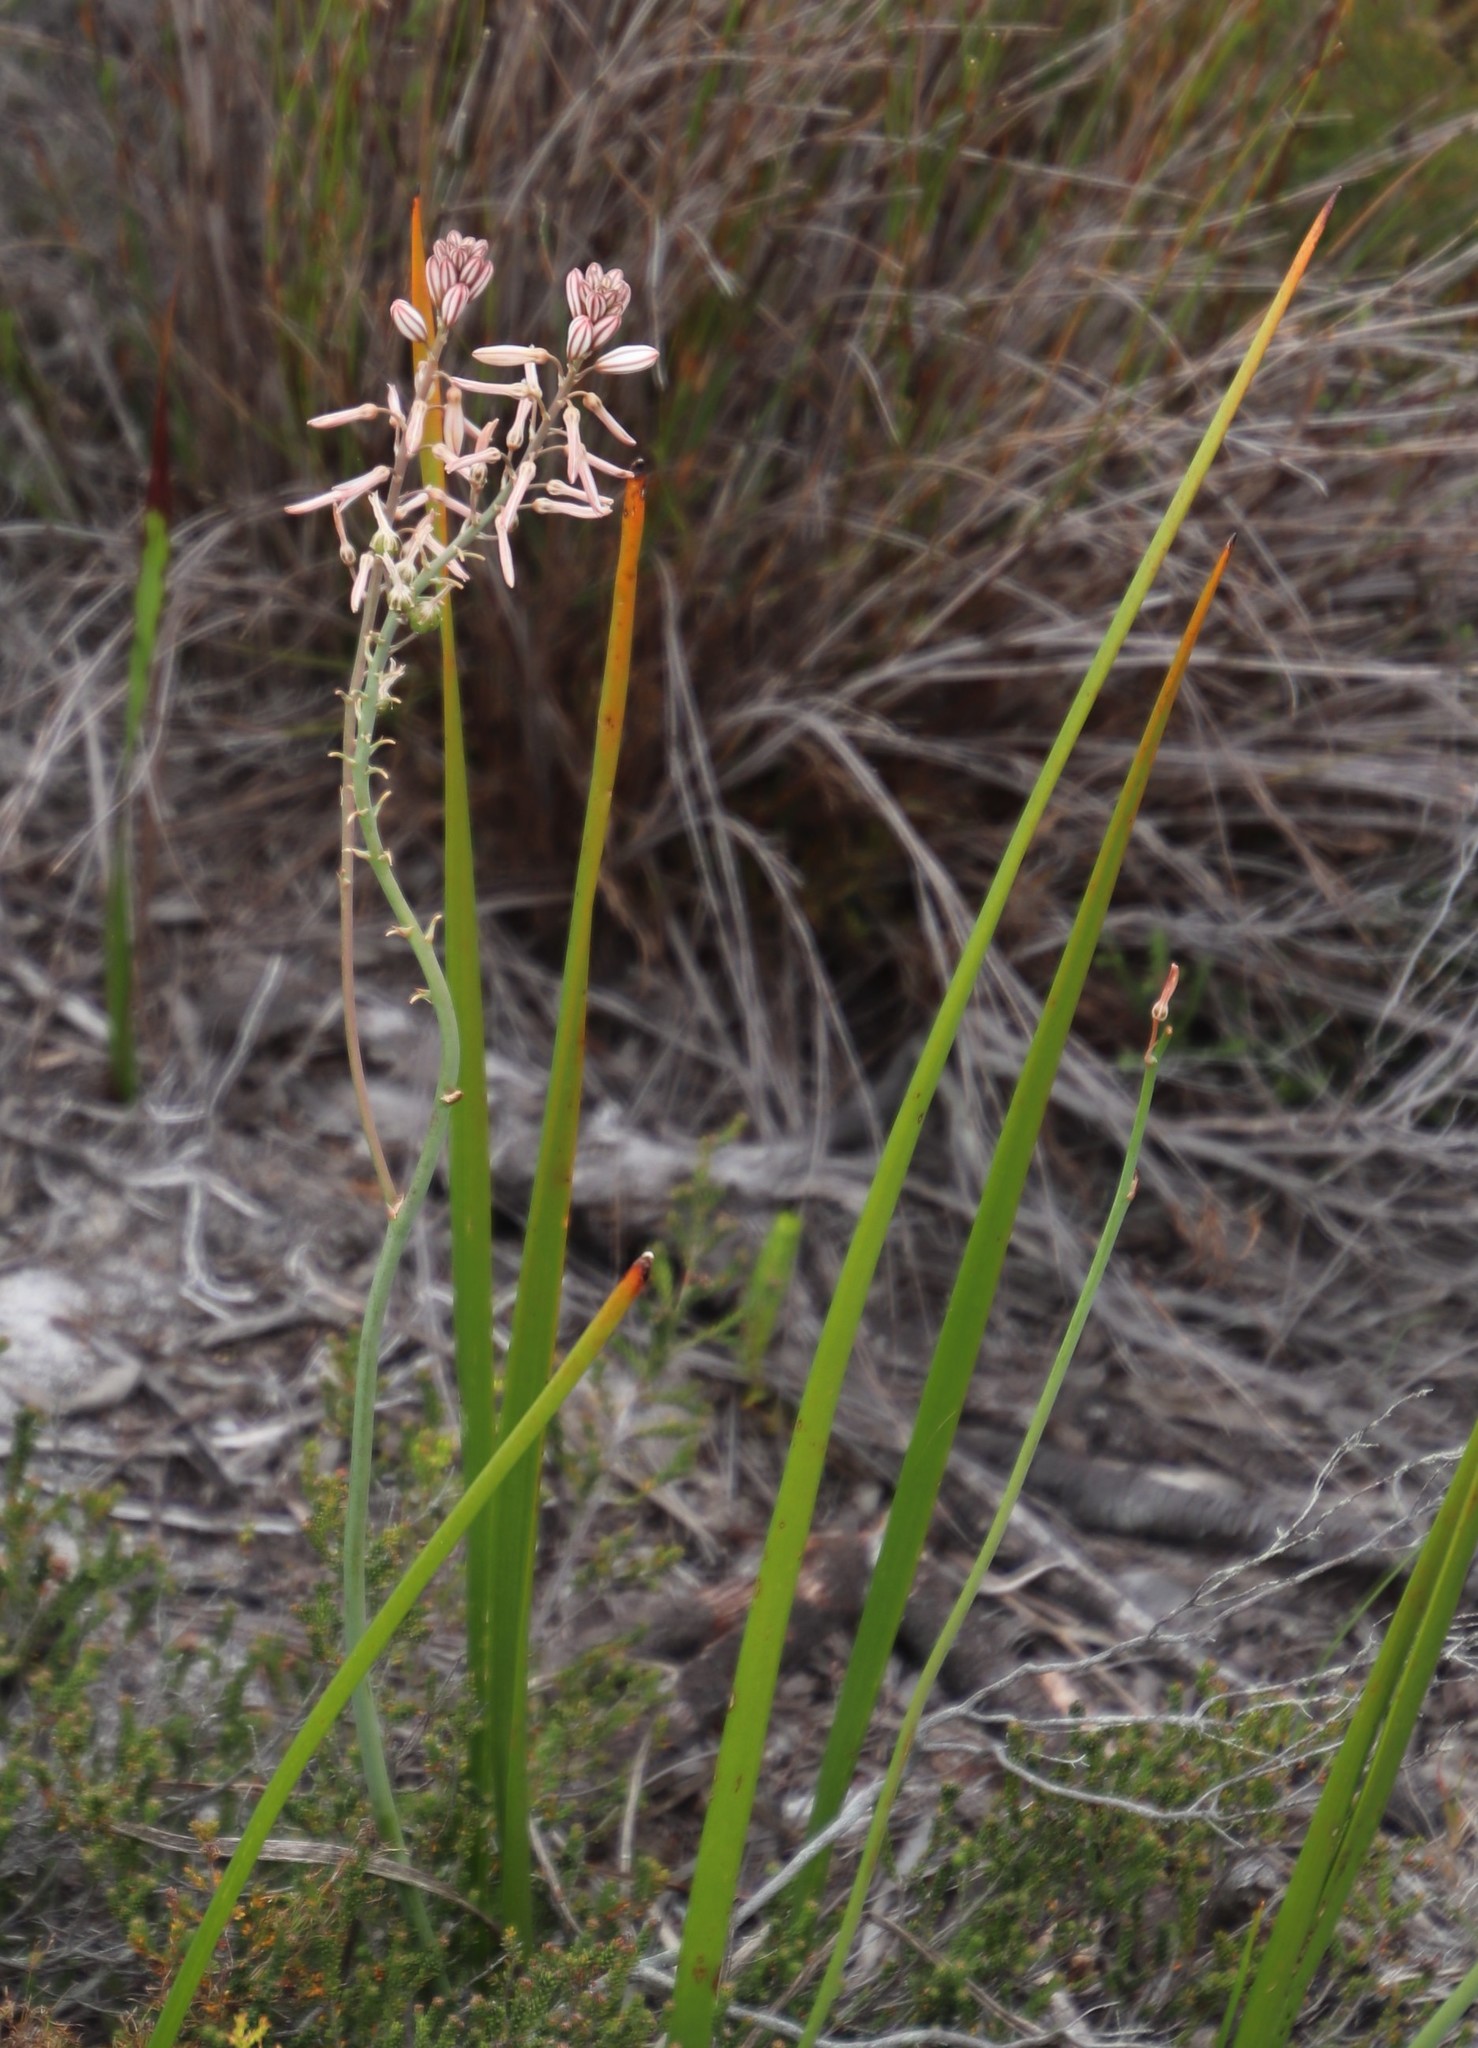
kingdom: Plantae
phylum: Tracheophyta
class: Liliopsida
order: Asparagales
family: Asphodelaceae
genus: Trachyandra
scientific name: Trachyandra tabularis
